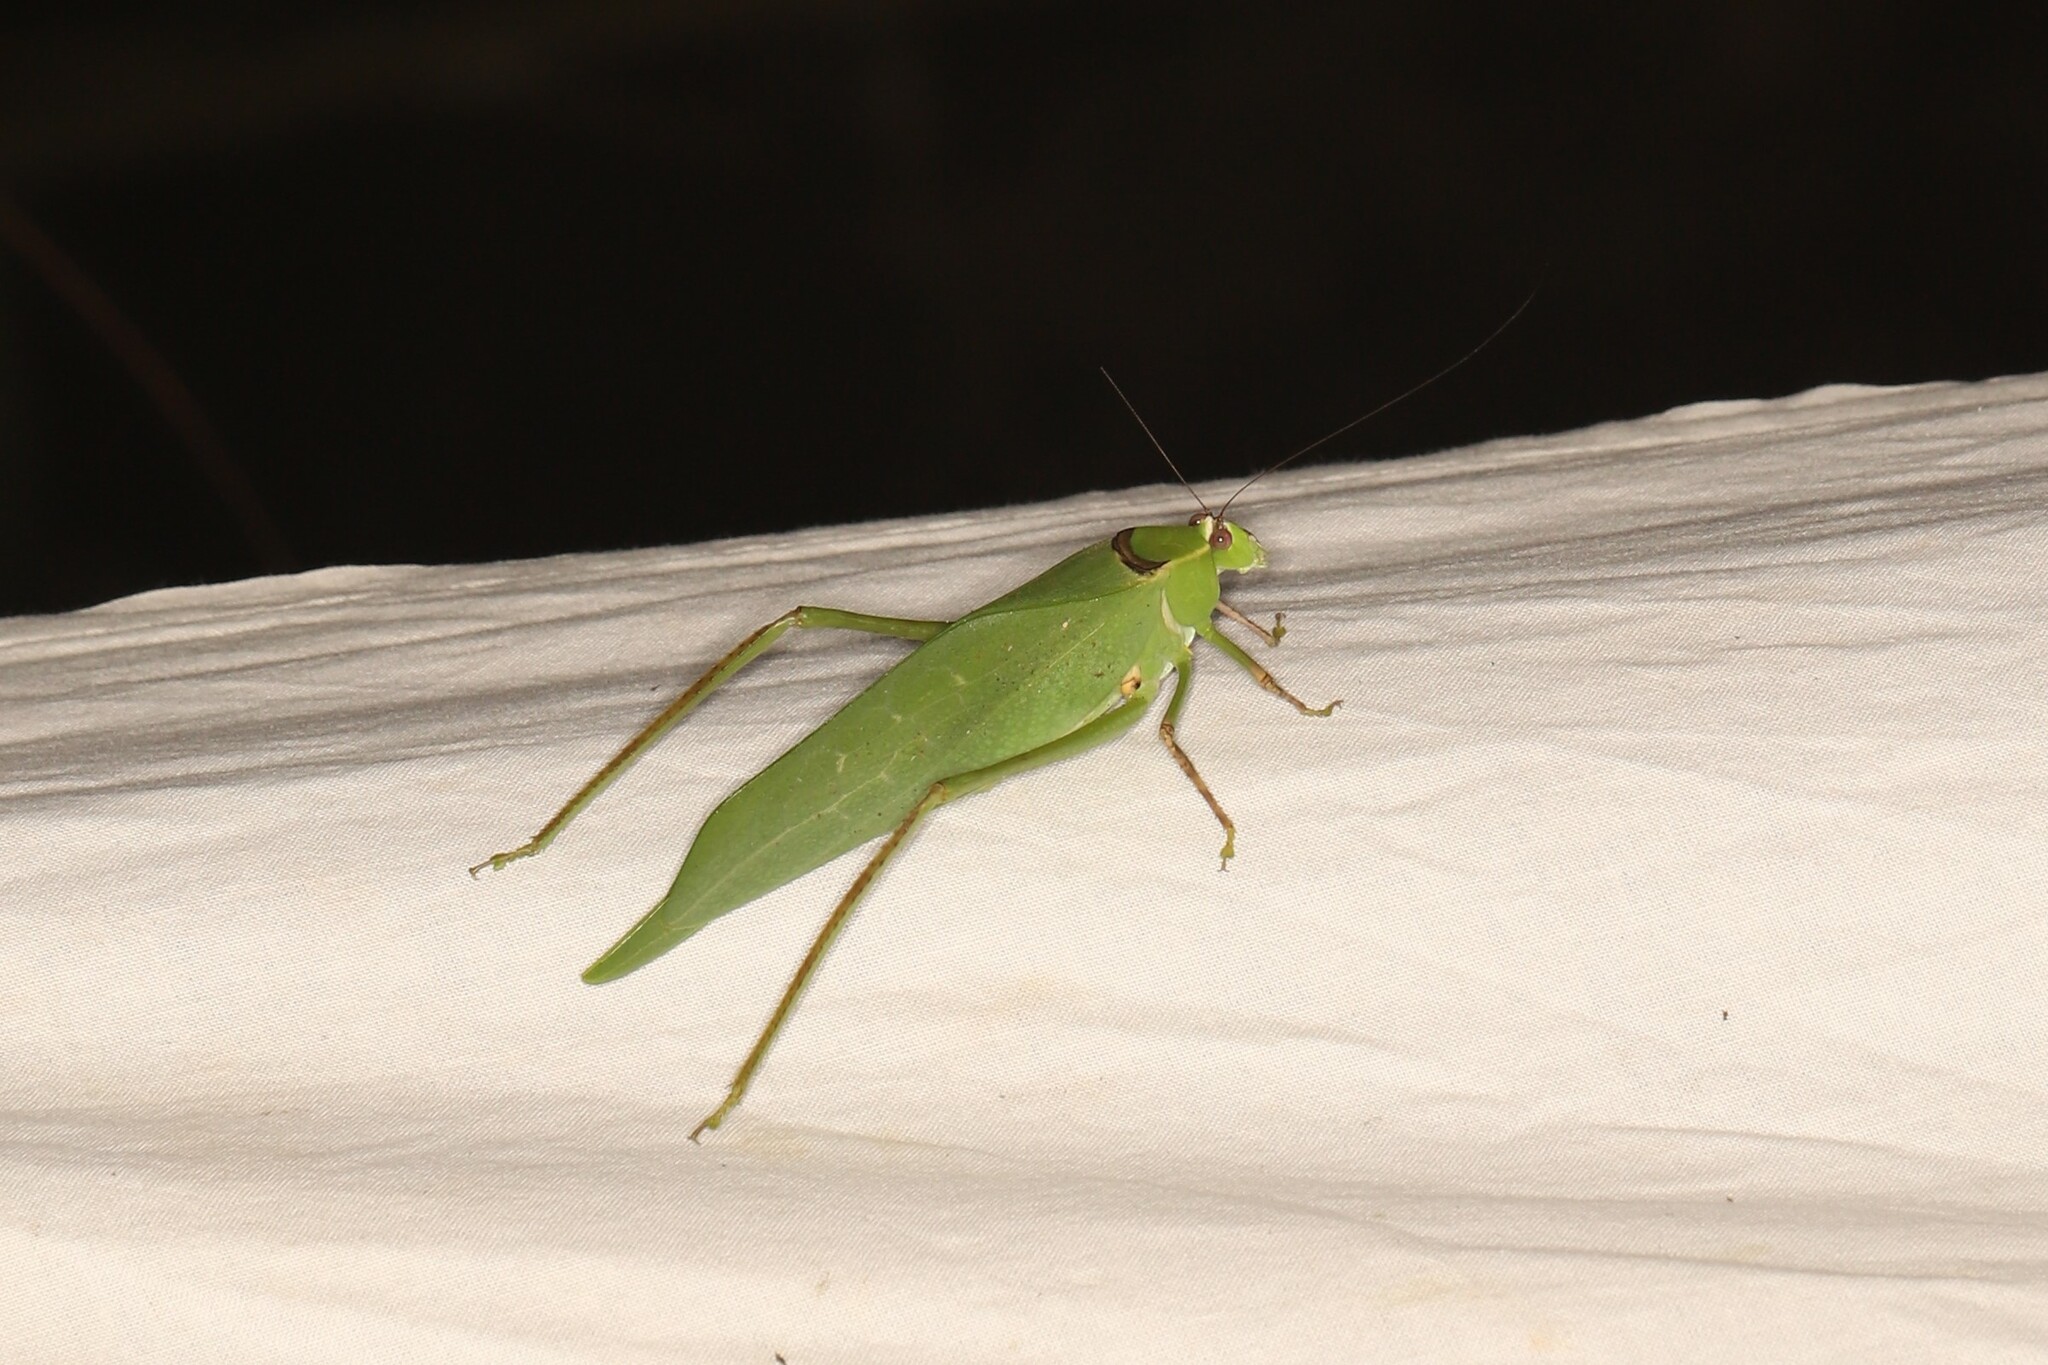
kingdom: Animalia
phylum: Arthropoda
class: Insecta
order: Orthoptera
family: Tettigoniidae
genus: Stilpnochlora
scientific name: Stilpnochlora thoracica
